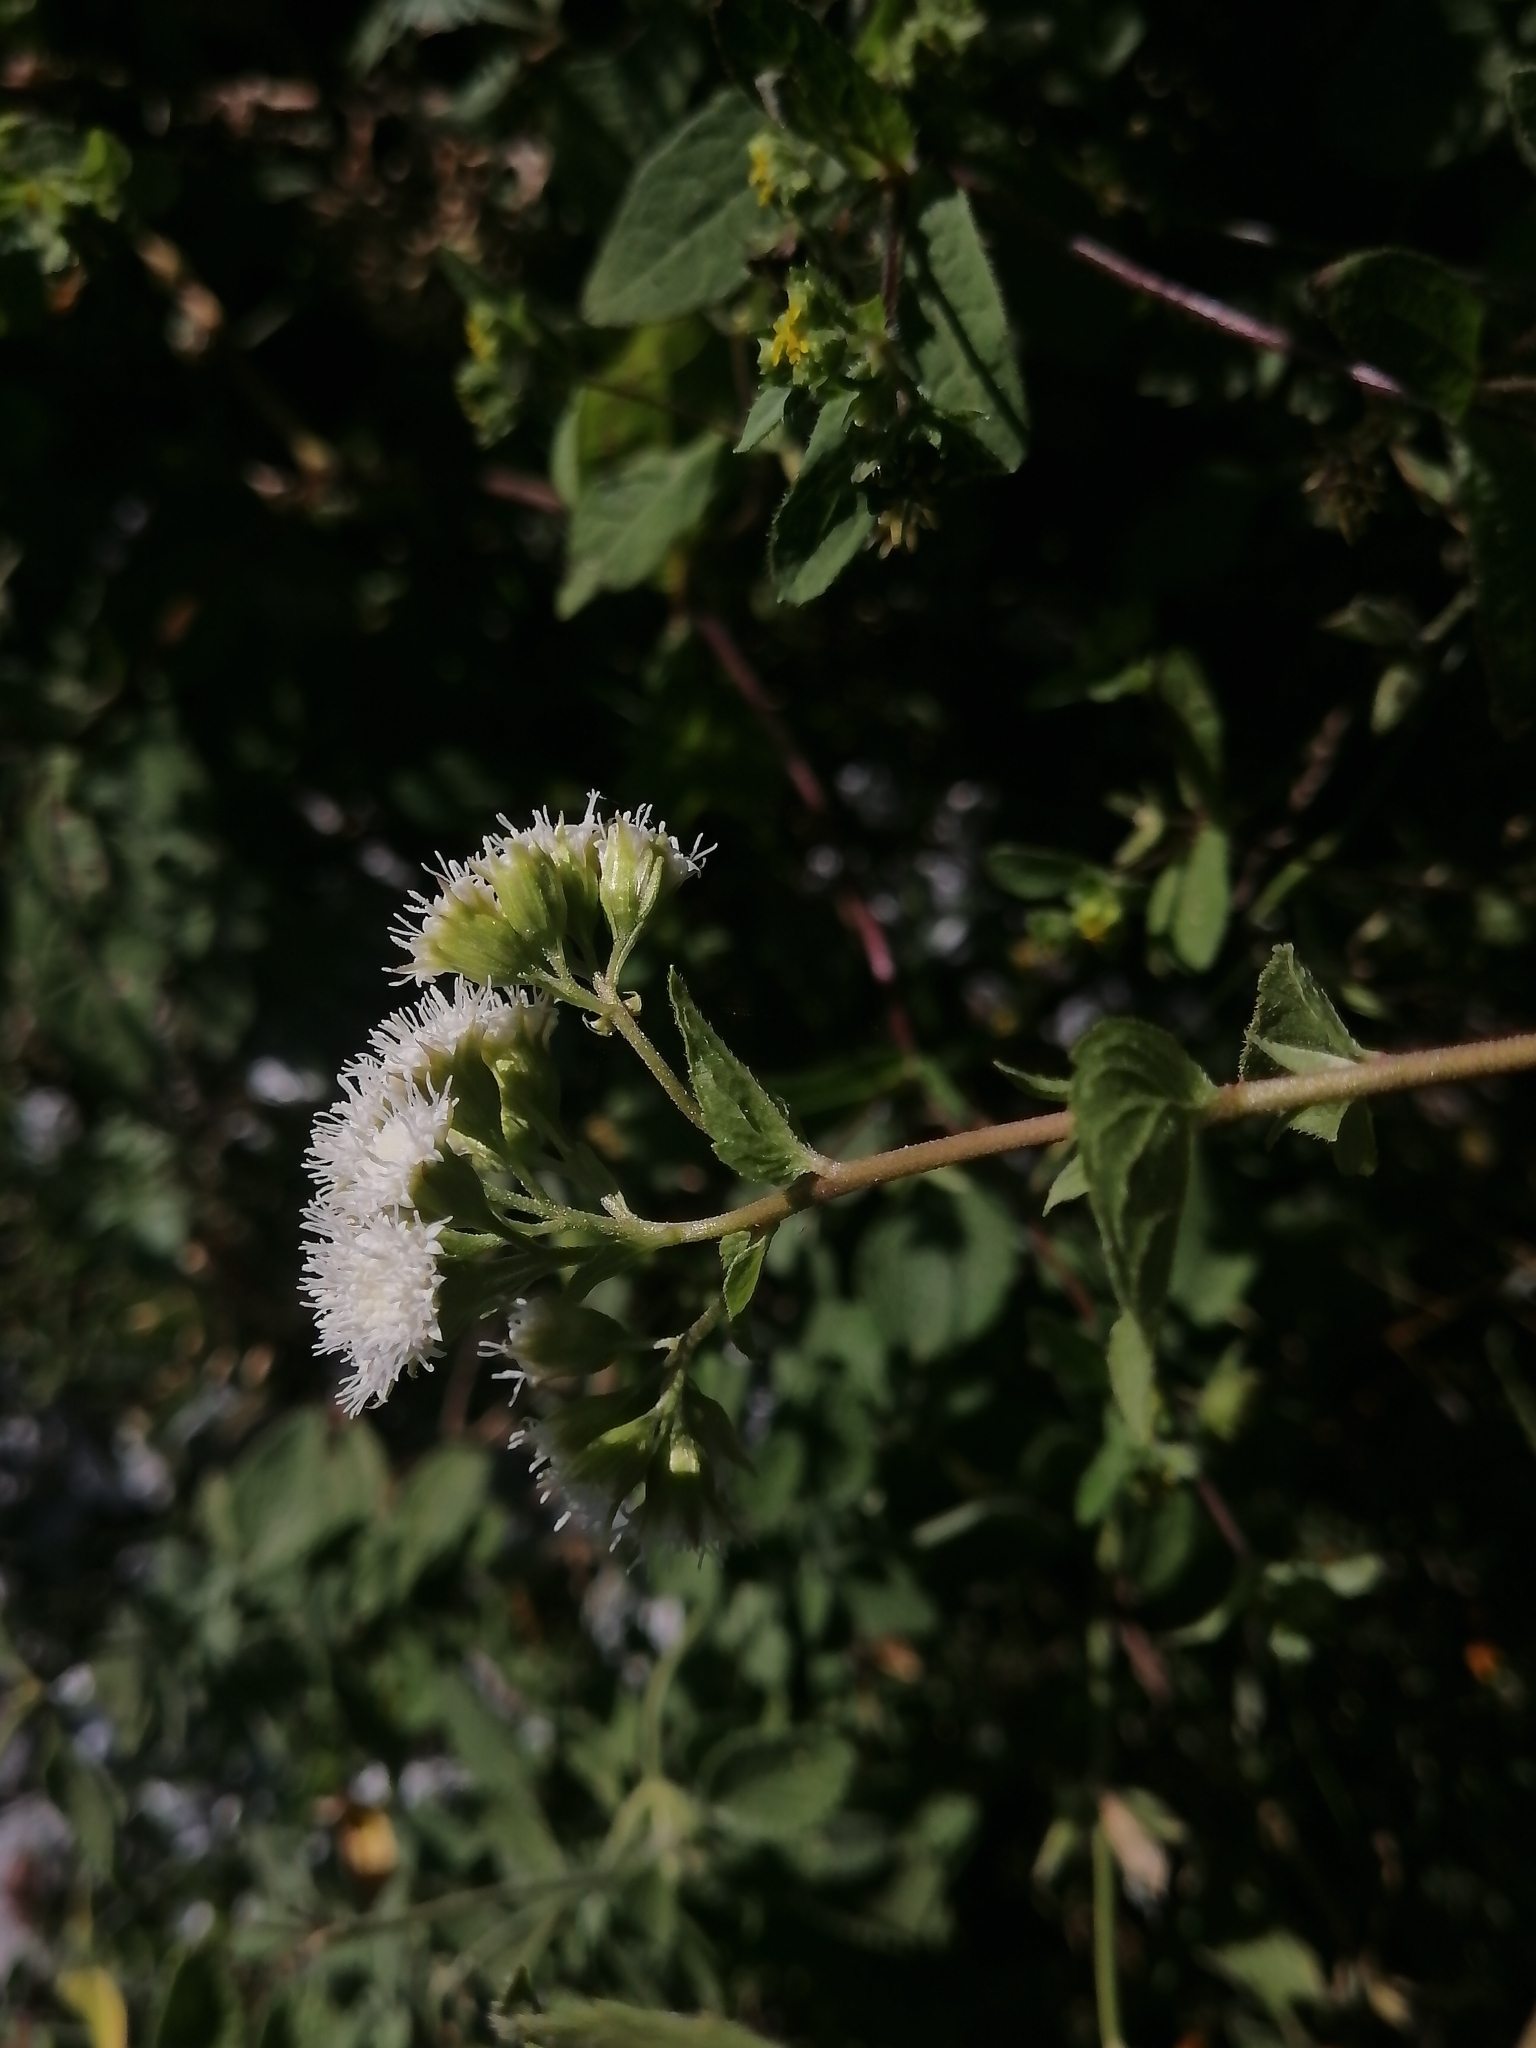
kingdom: Plantae
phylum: Tracheophyta
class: Magnoliopsida
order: Asterales
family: Asteraceae
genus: Ageratina
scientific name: Ageratina pichinchensis
